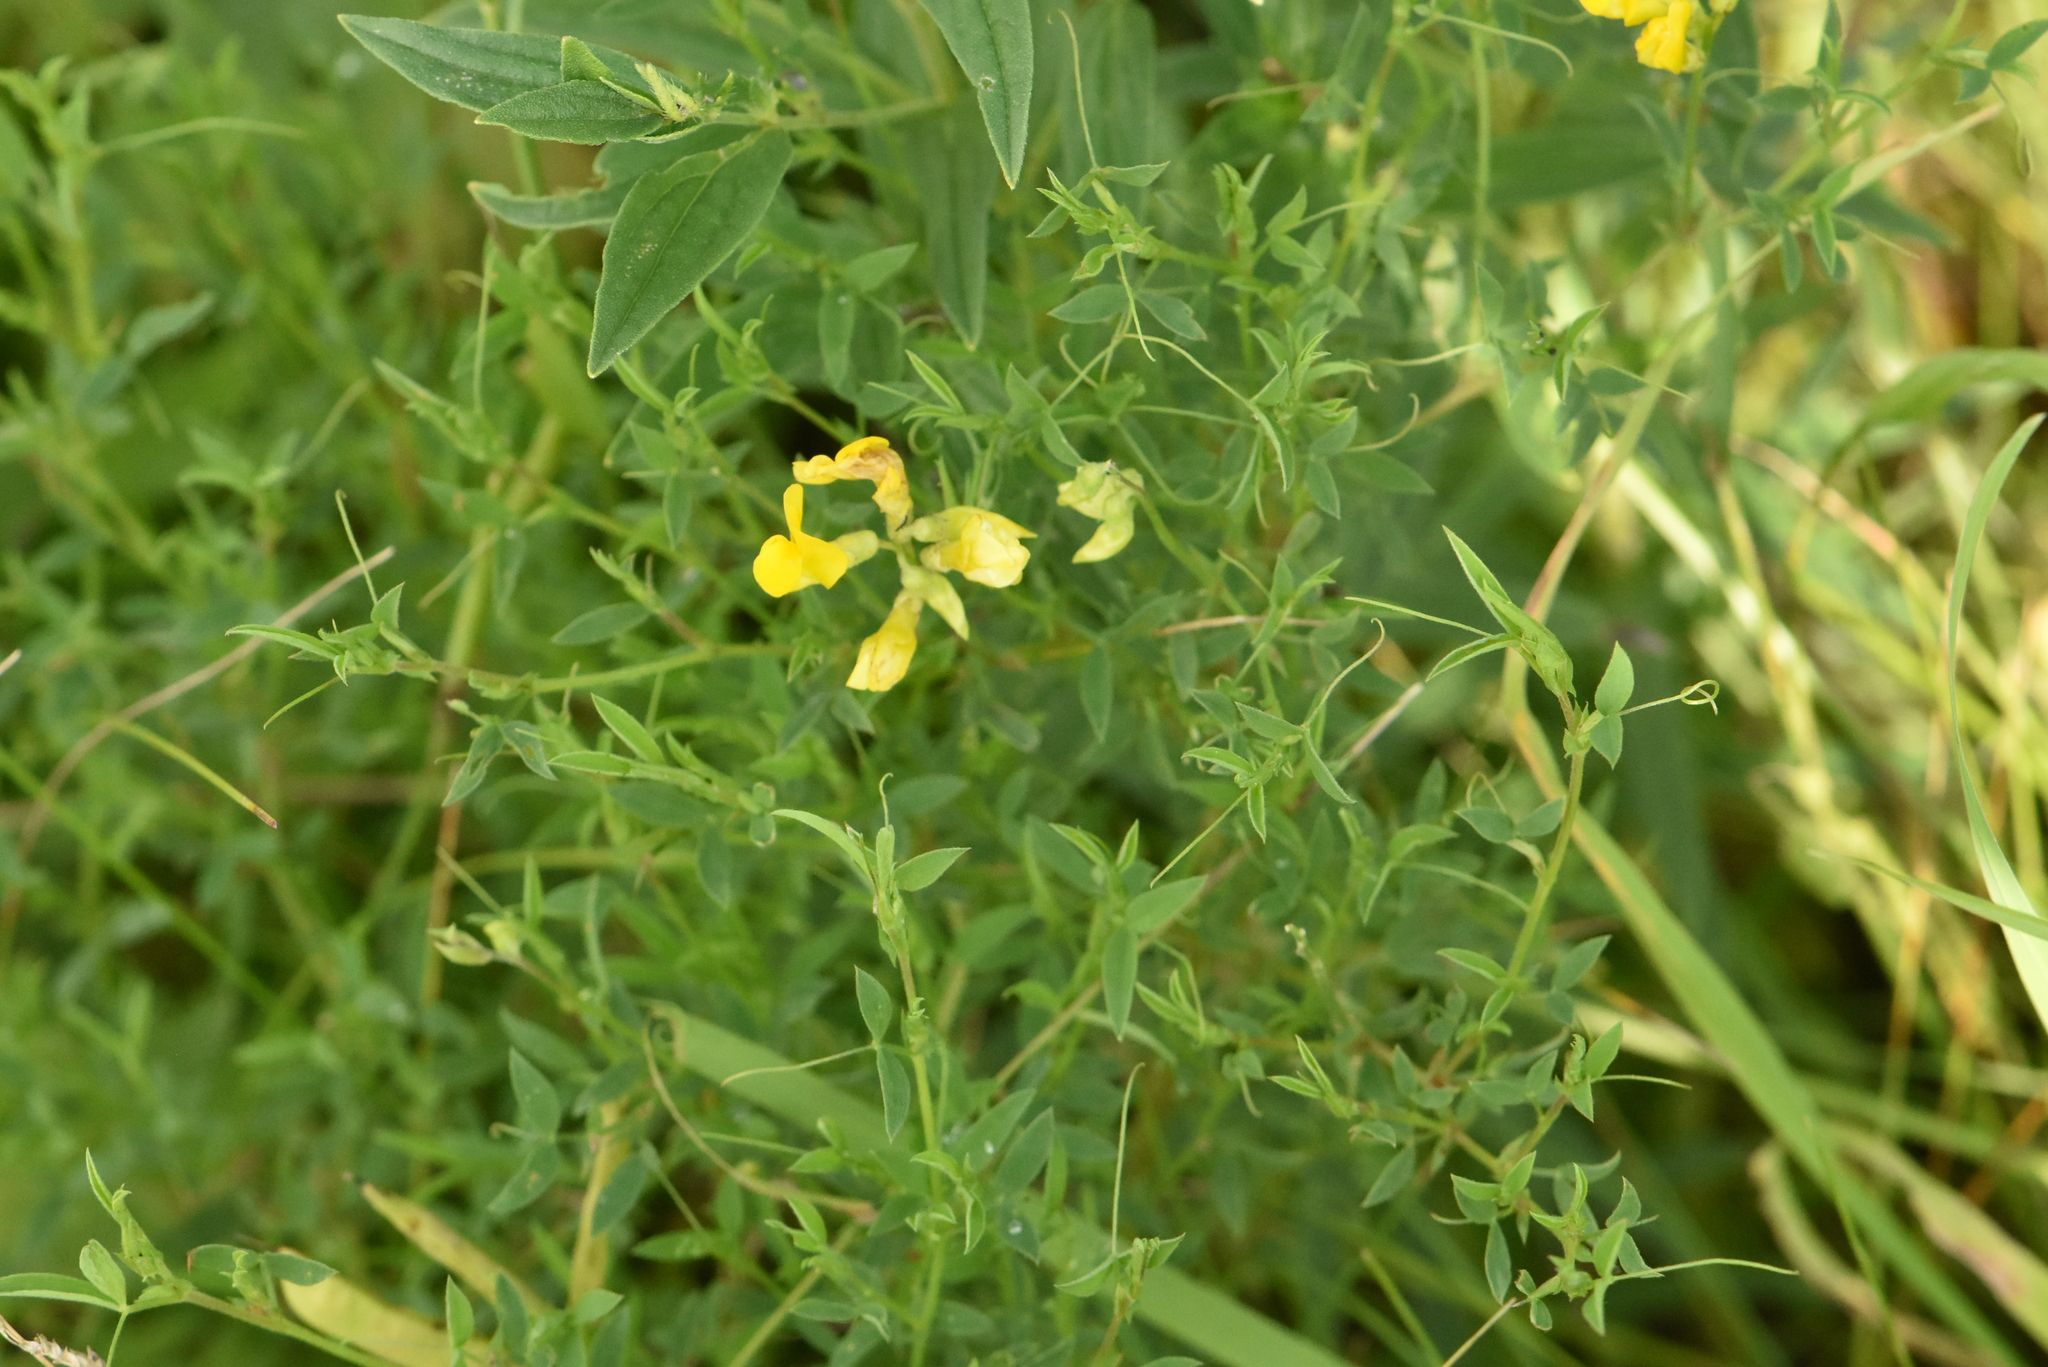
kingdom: Plantae
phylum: Tracheophyta
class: Magnoliopsida
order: Fabales
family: Fabaceae
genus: Lathyrus
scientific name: Lathyrus pratensis
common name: Meadow vetchling
